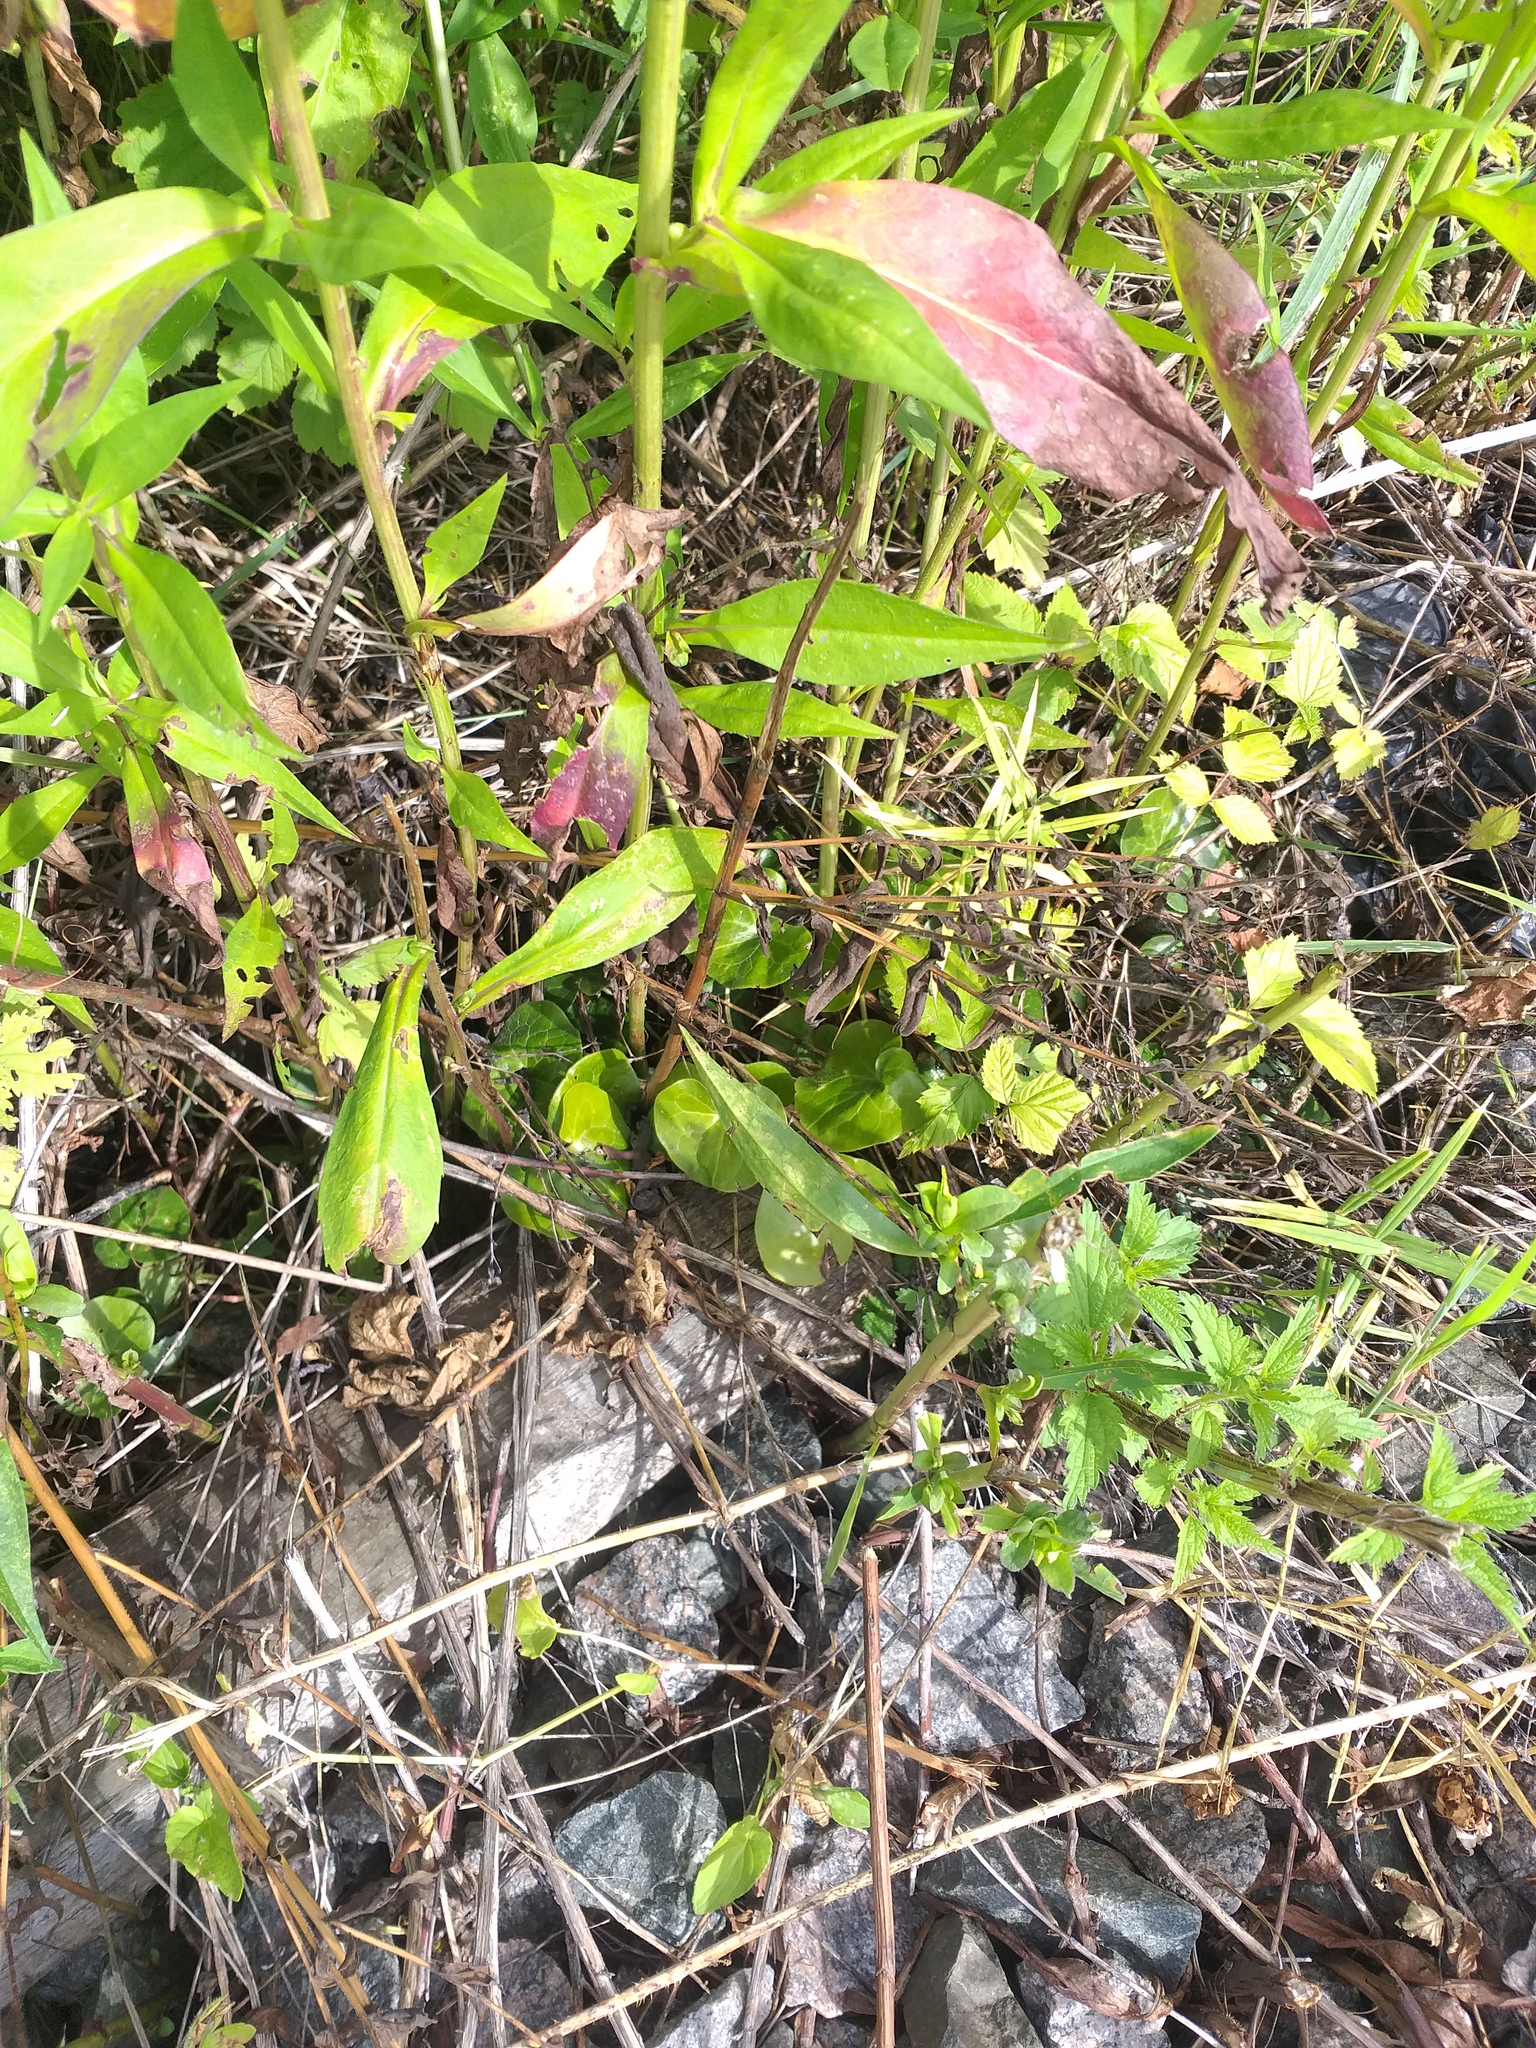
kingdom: Plantae
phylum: Tracheophyta
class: Magnoliopsida
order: Piperales
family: Aristolochiaceae
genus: Asarum
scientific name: Asarum europaeum
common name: Asarabacca
